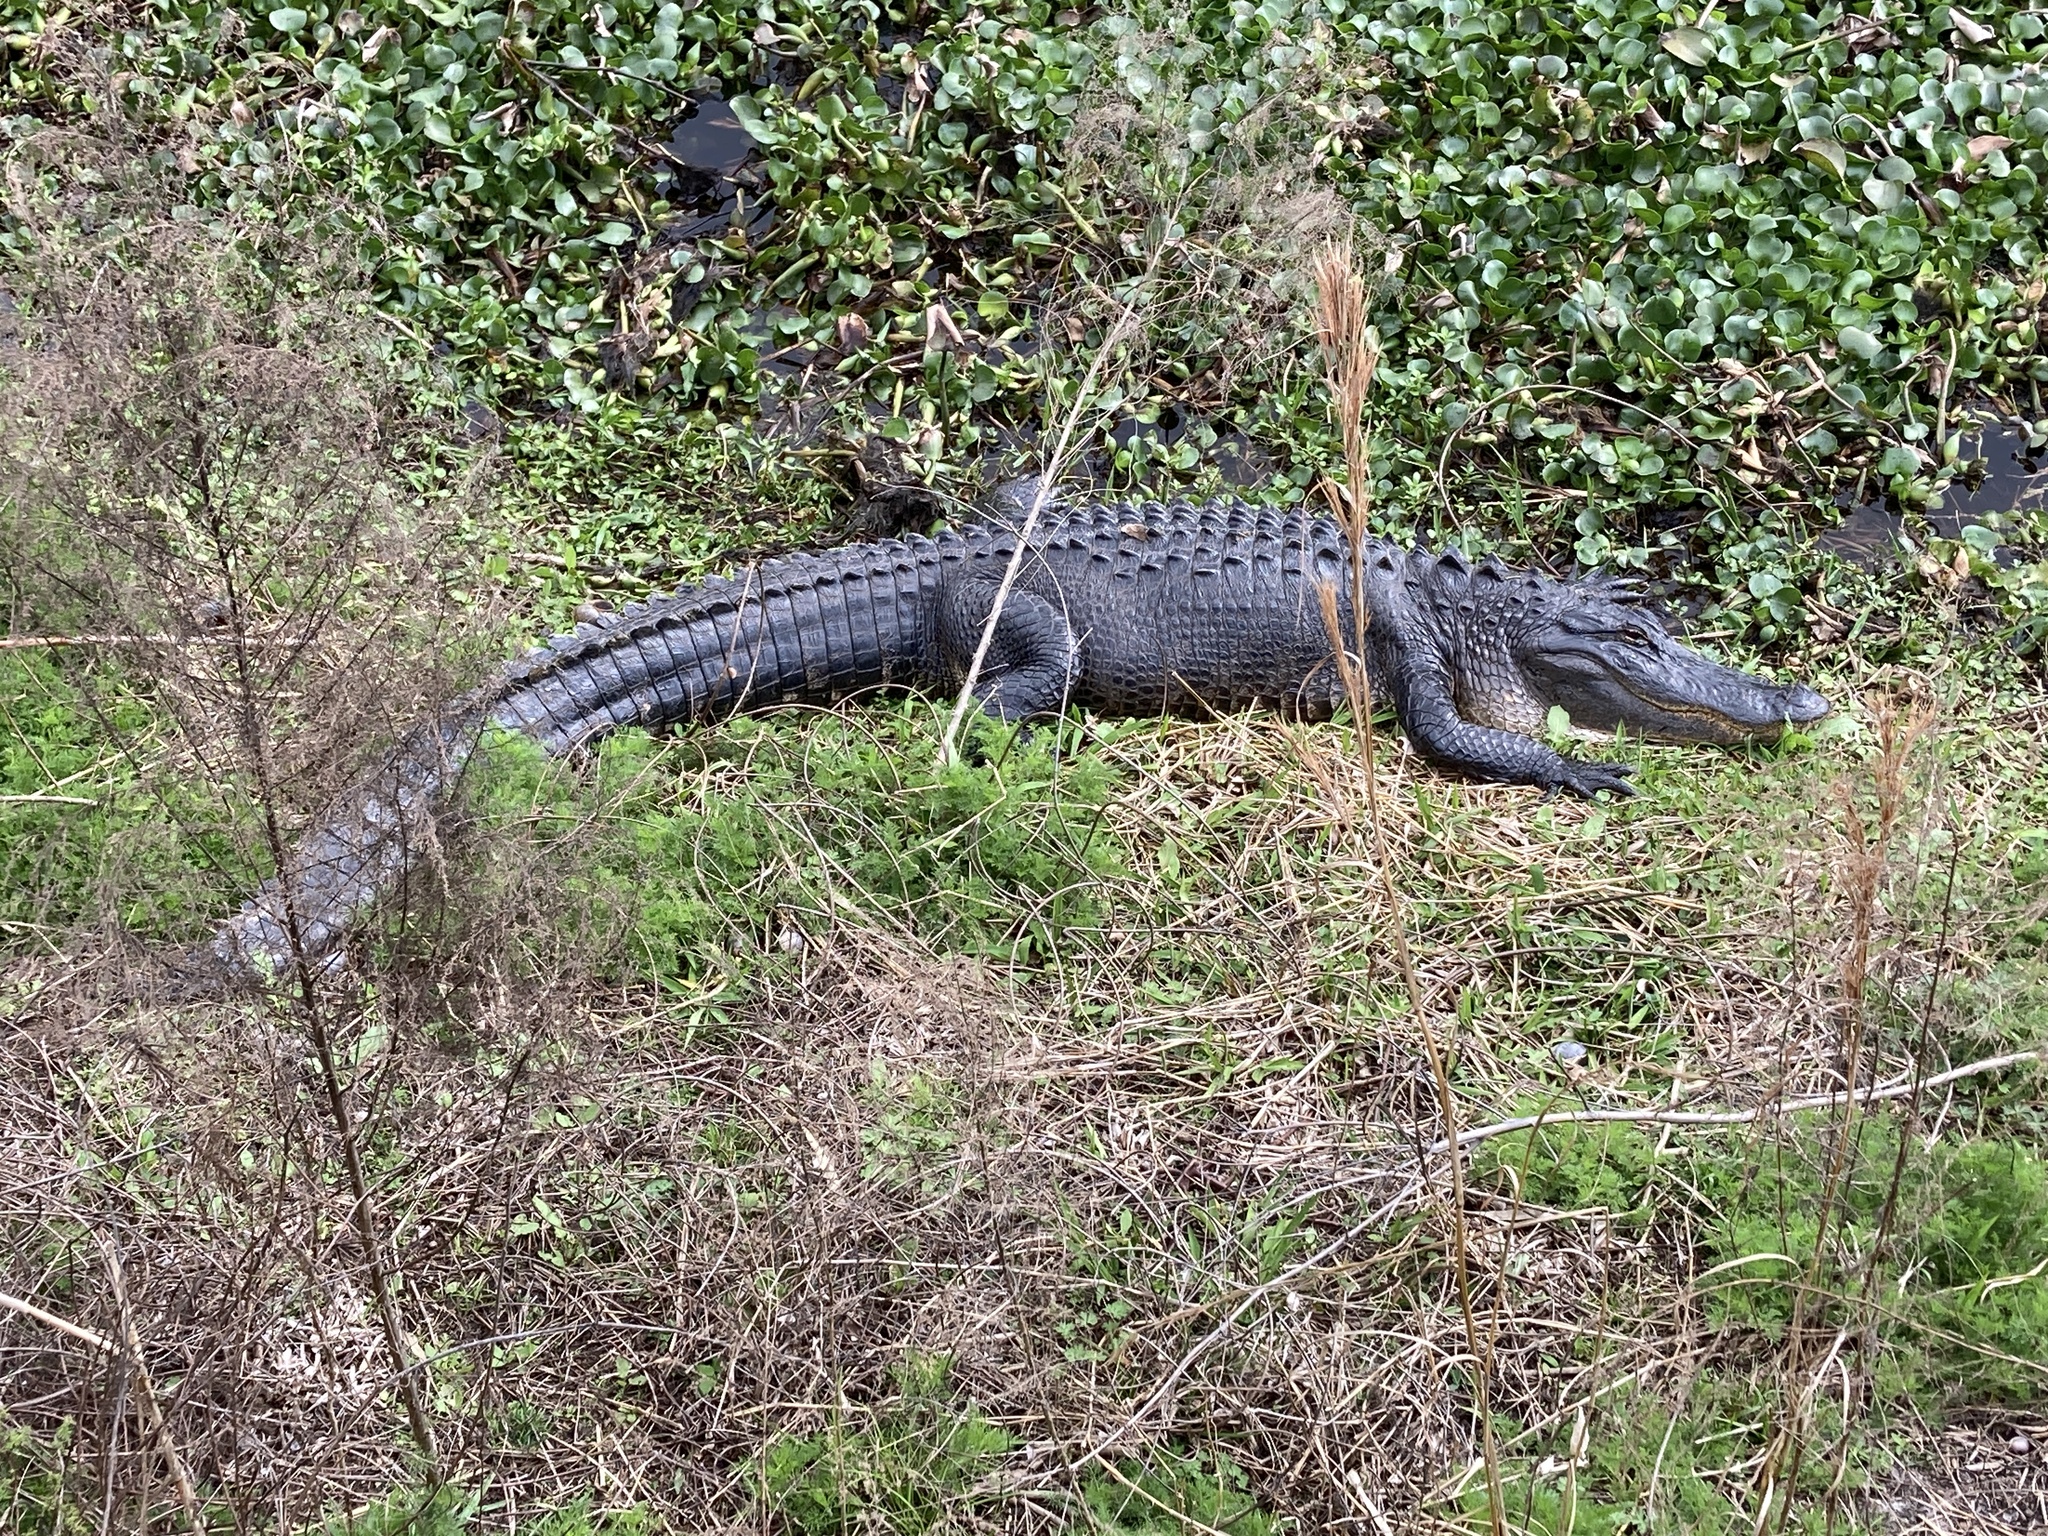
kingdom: Animalia
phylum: Chordata
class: Crocodylia
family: Alligatoridae
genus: Alligator
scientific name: Alligator mississippiensis
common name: American alligator
